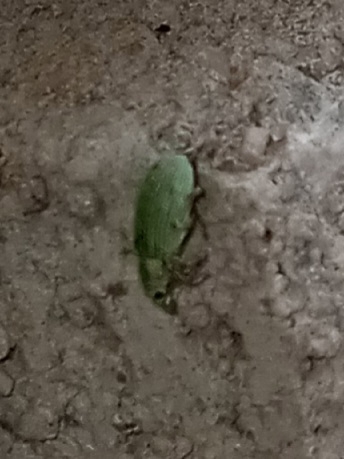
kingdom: Animalia
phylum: Arthropoda
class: Insecta
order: Coleoptera
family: Curculionidae
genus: Polydrusus
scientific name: Polydrusus formosus
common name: Weevil
